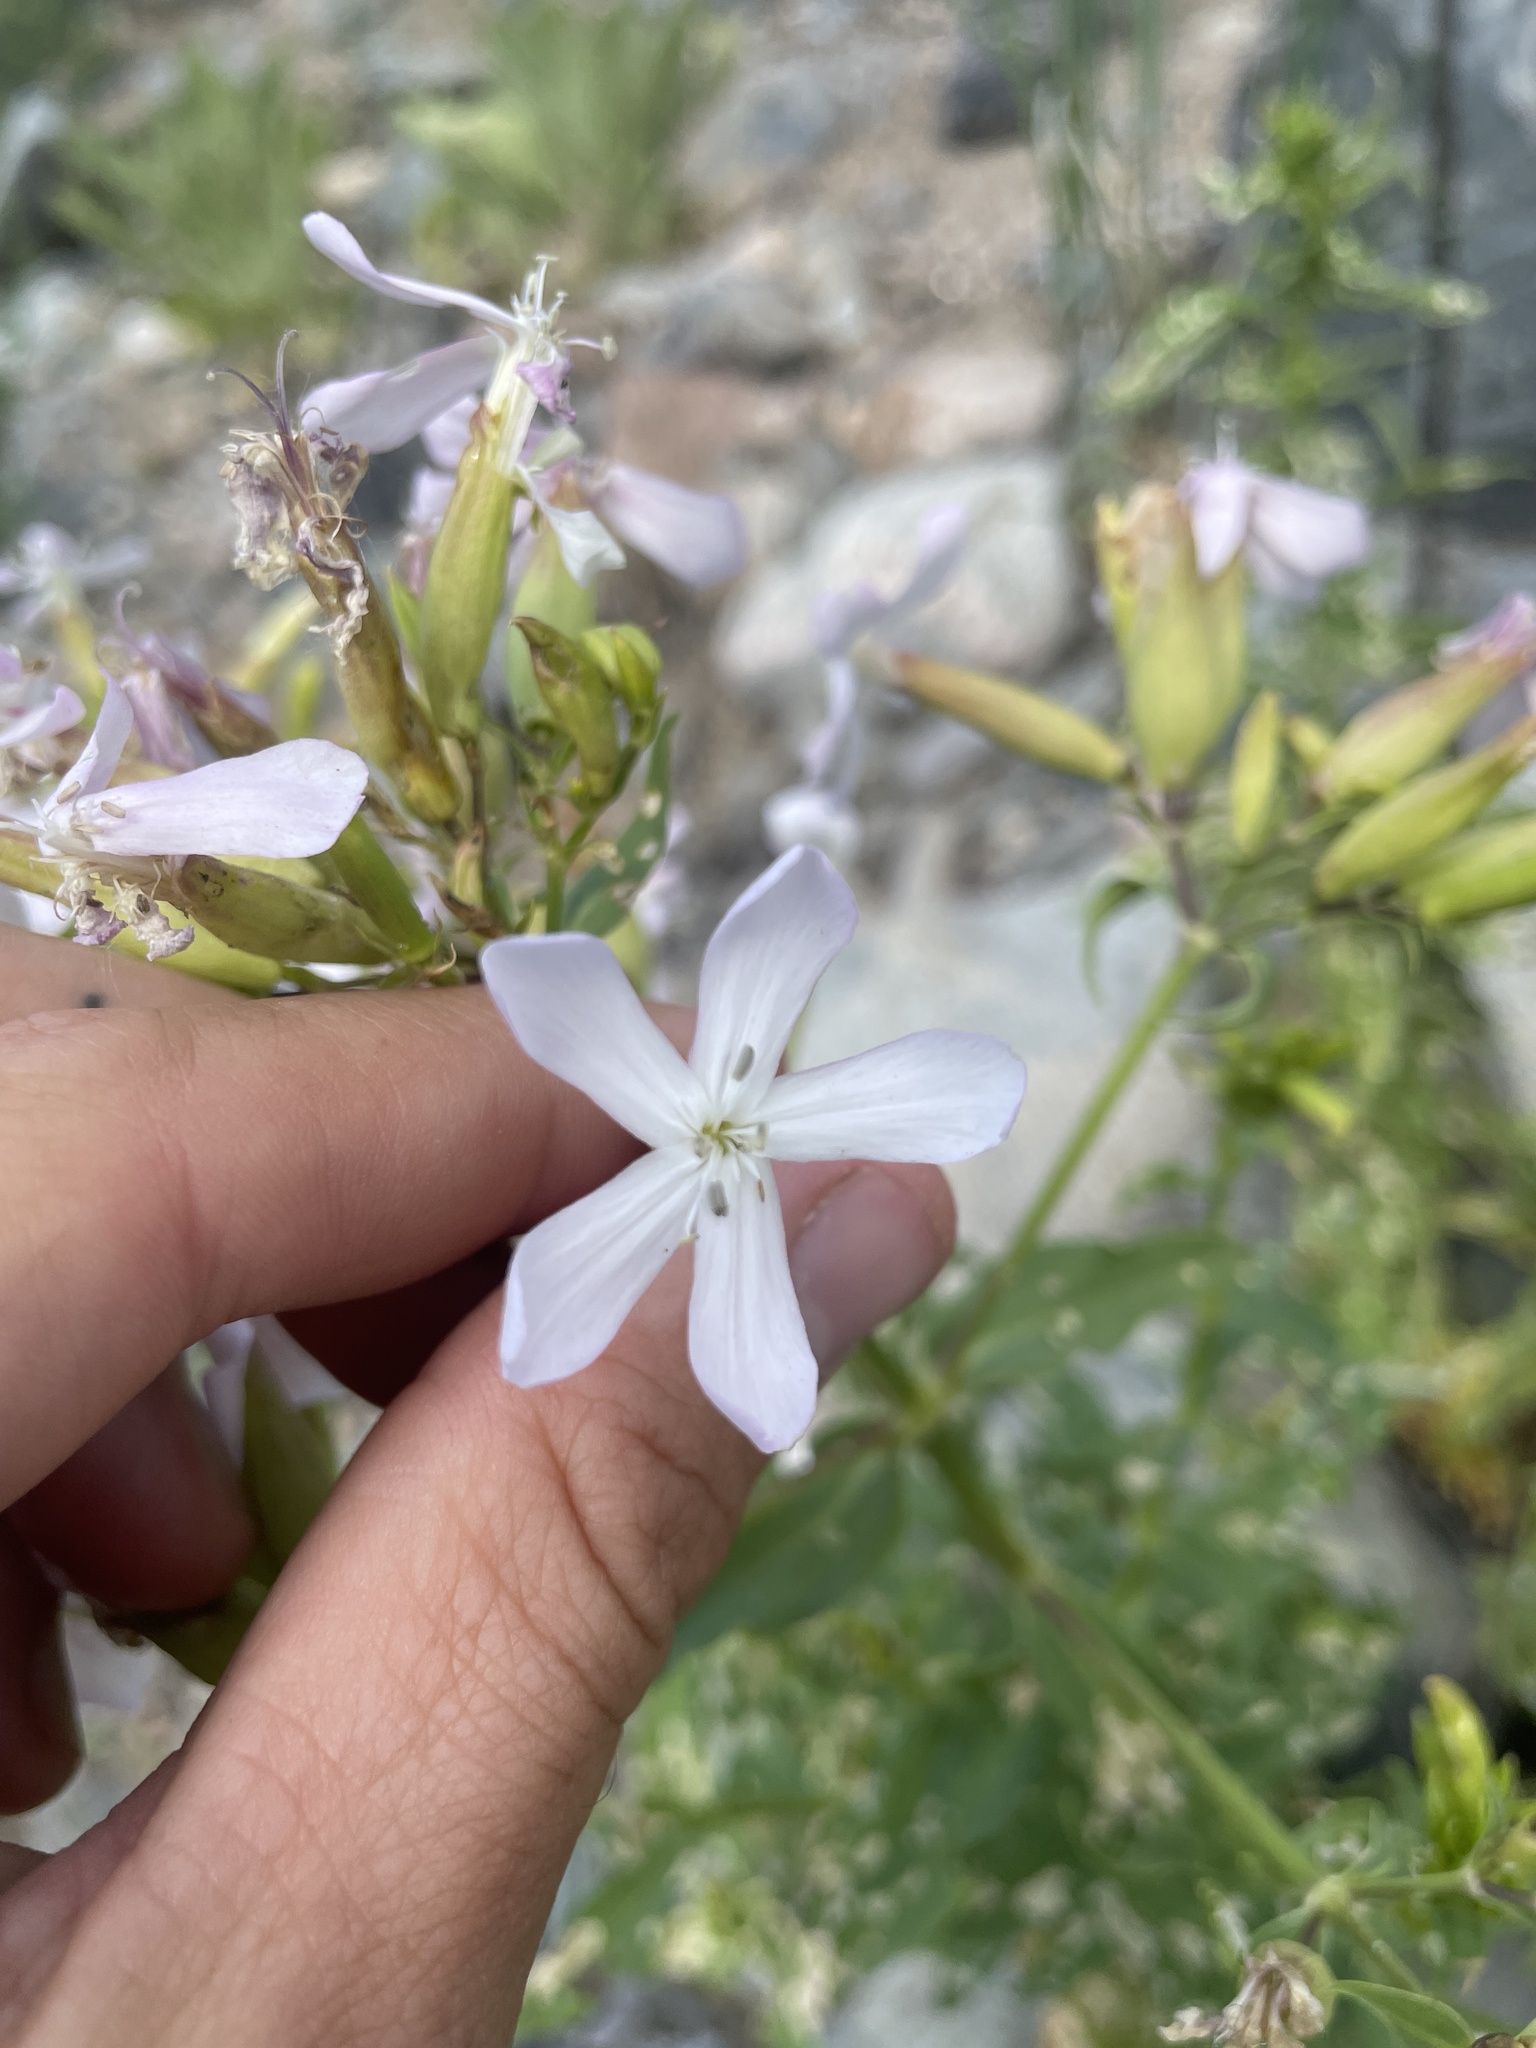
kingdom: Plantae
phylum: Tracheophyta
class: Magnoliopsida
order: Caryophyllales
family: Caryophyllaceae
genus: Saponaria
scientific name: Saponaria officinalis
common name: Soapwort
